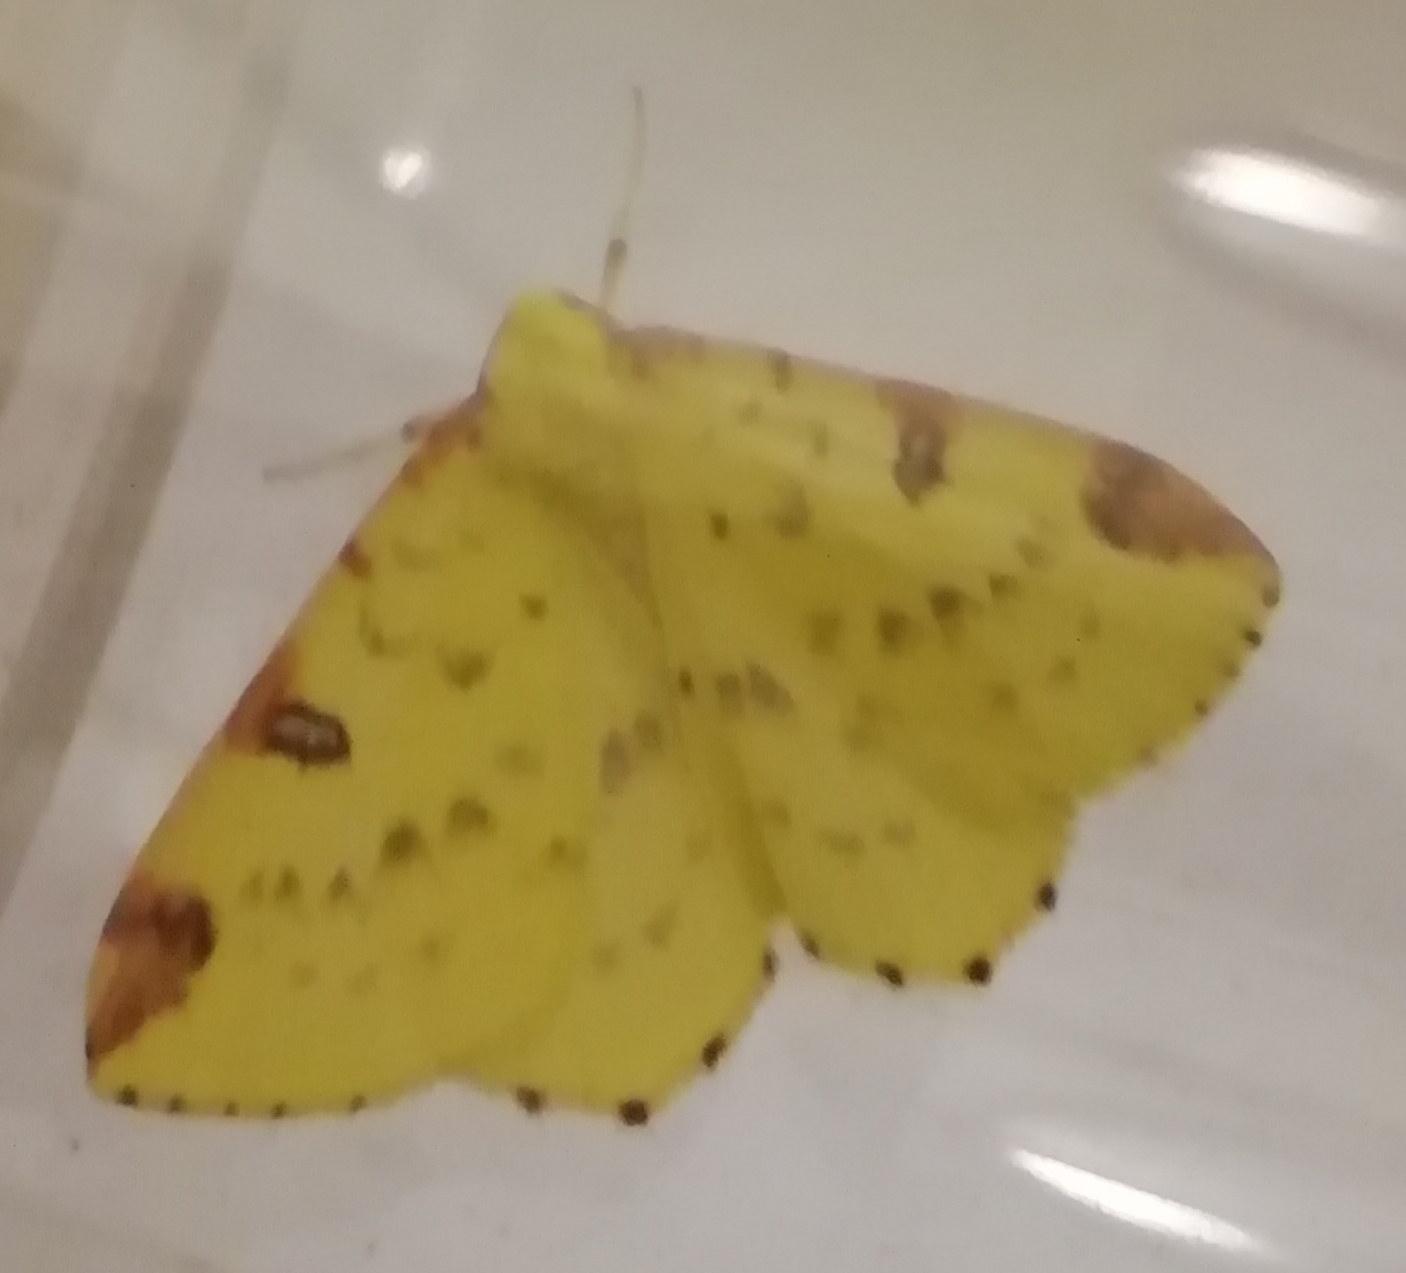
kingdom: Animalia
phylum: Arthropoda
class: Insecta
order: Lepidoptera
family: Geometridae
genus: Opisthograptis
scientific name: Opisthograptis luteolata
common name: Brimstone moth
